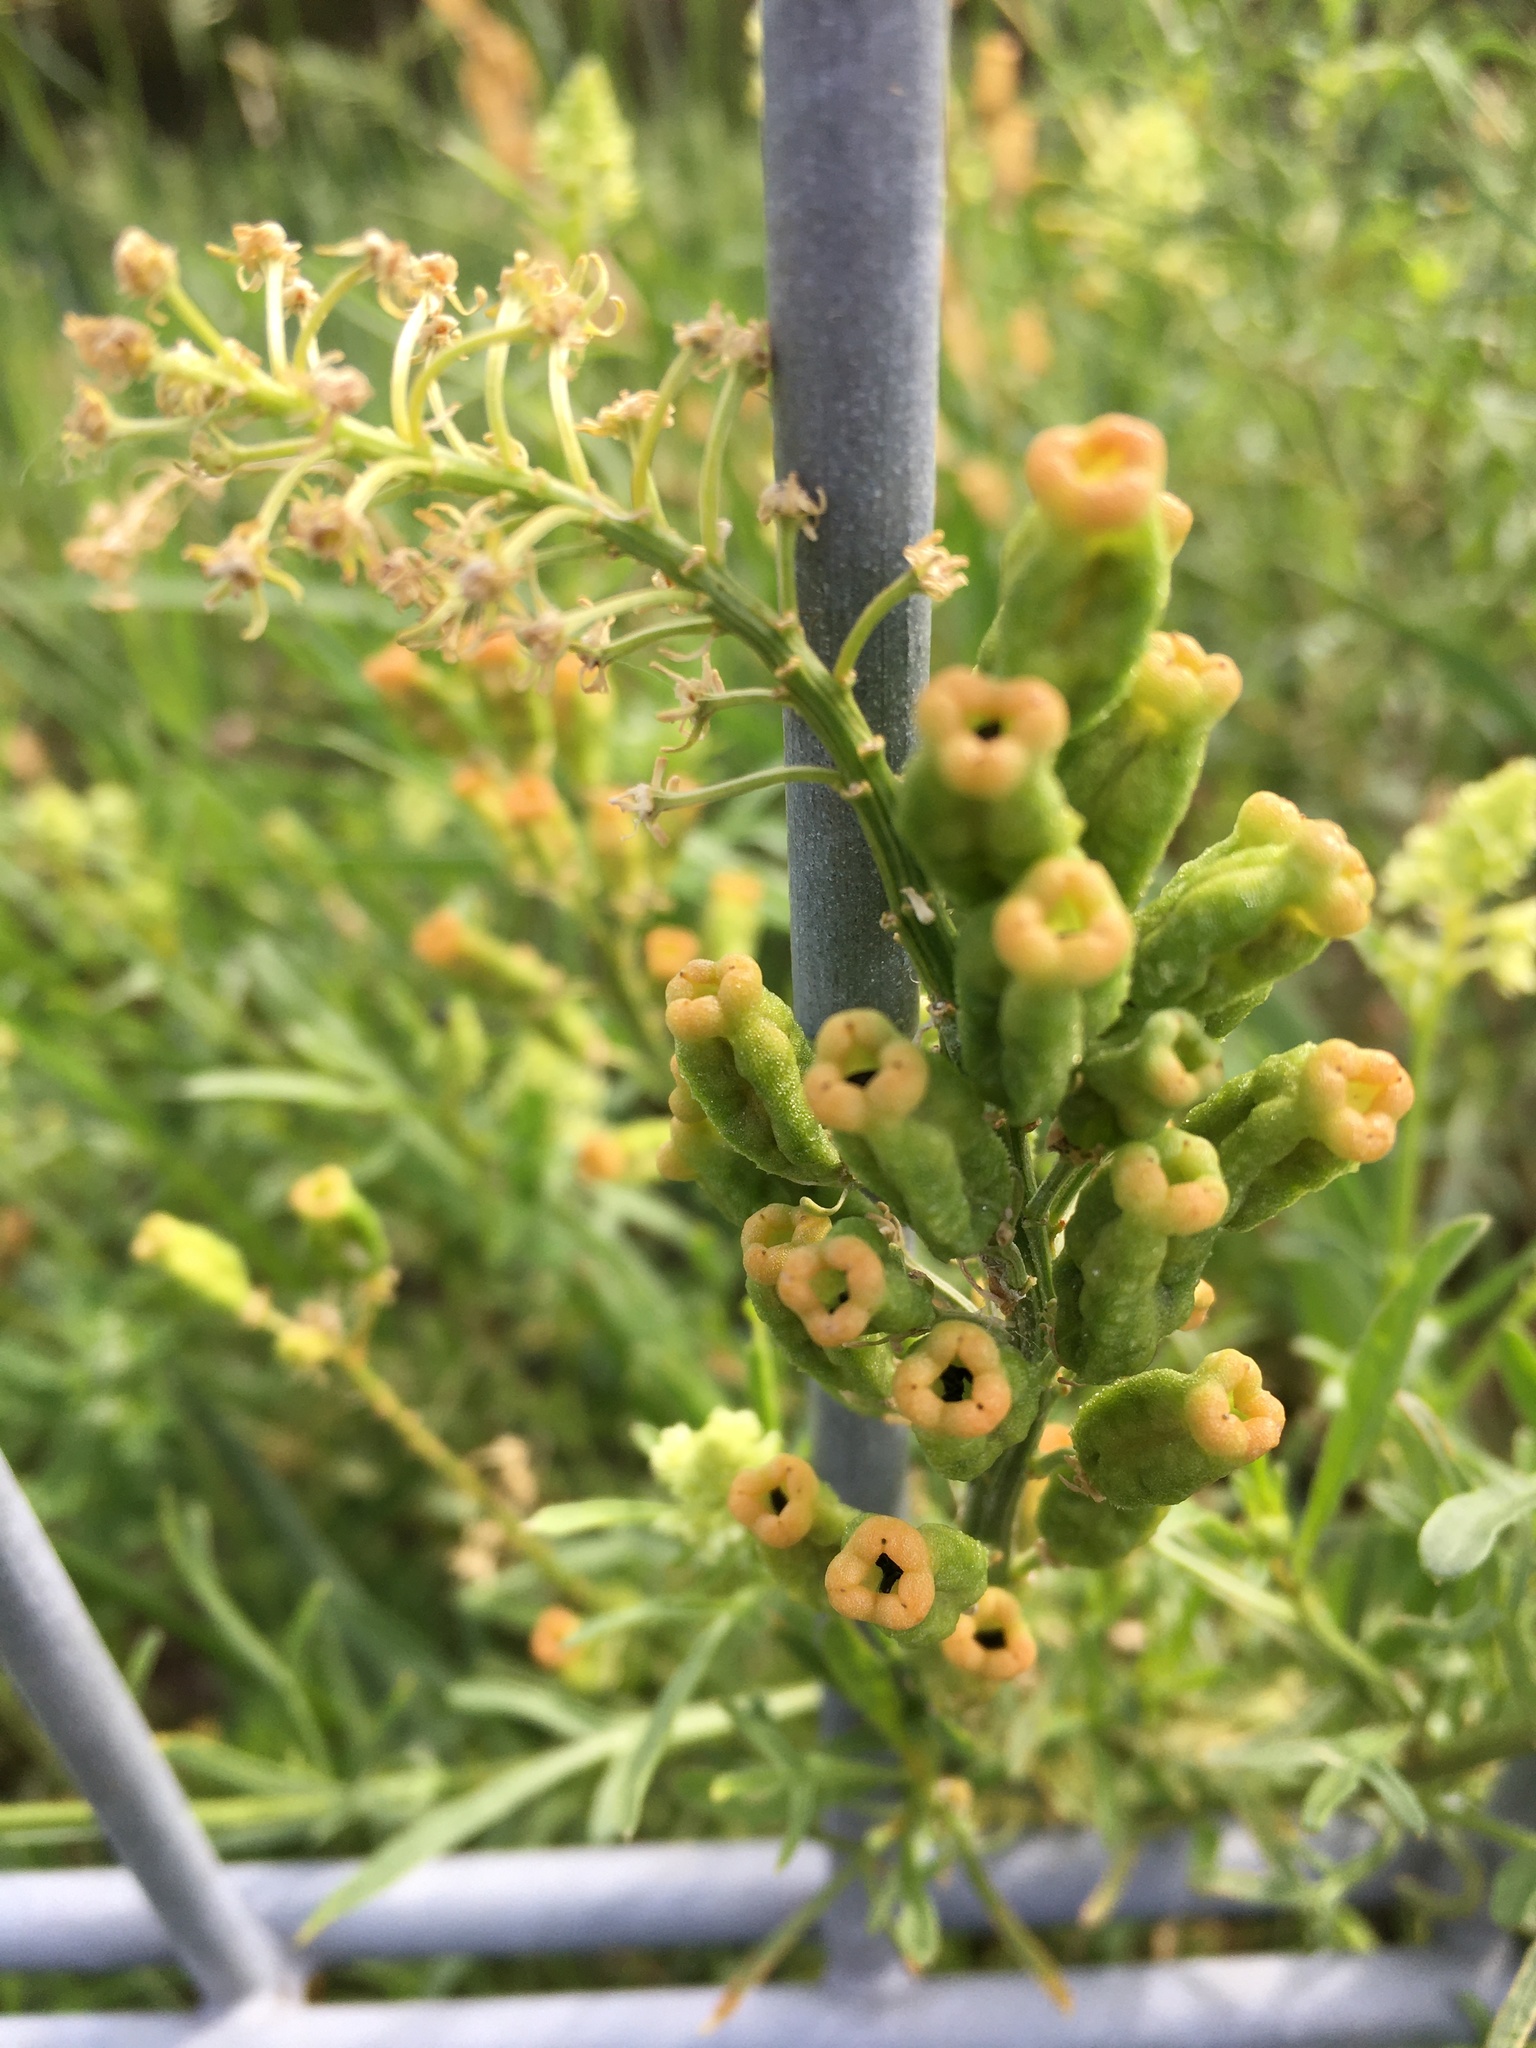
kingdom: Plantae
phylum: Tracheophyta
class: Magnoliopsida
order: Brassicales
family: Resedaceae
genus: Reseda
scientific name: Reseda lutea
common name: Wild mignonette
